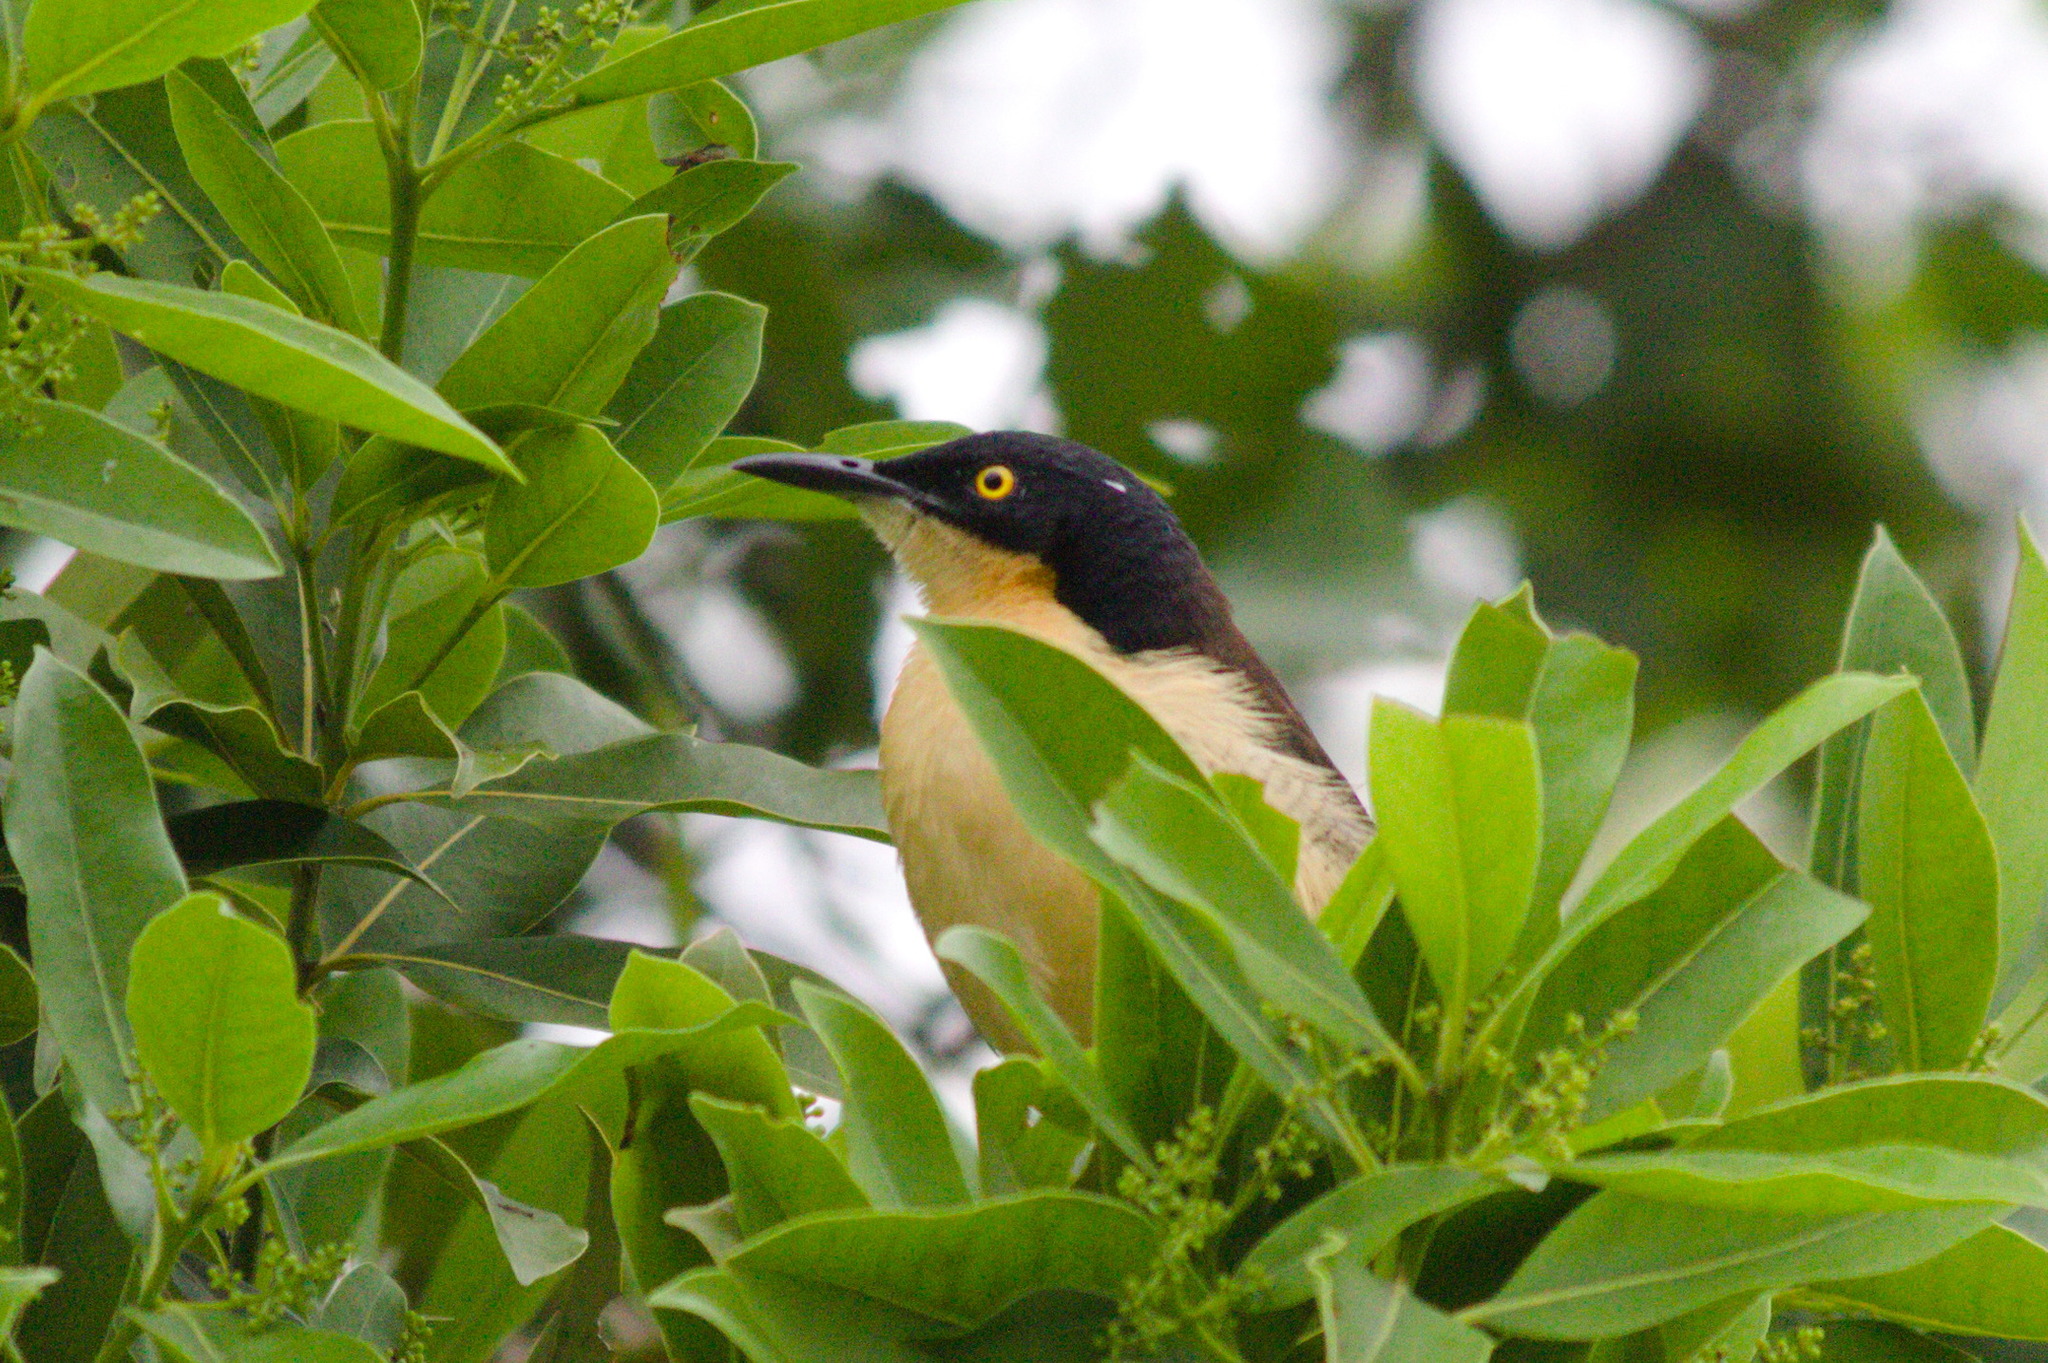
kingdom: Animalia
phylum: Chordata
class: Aves
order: Passeriformes
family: Donacobiidae
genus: Donacobius
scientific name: Donacobius atricapilla
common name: Black-capped donacobius
